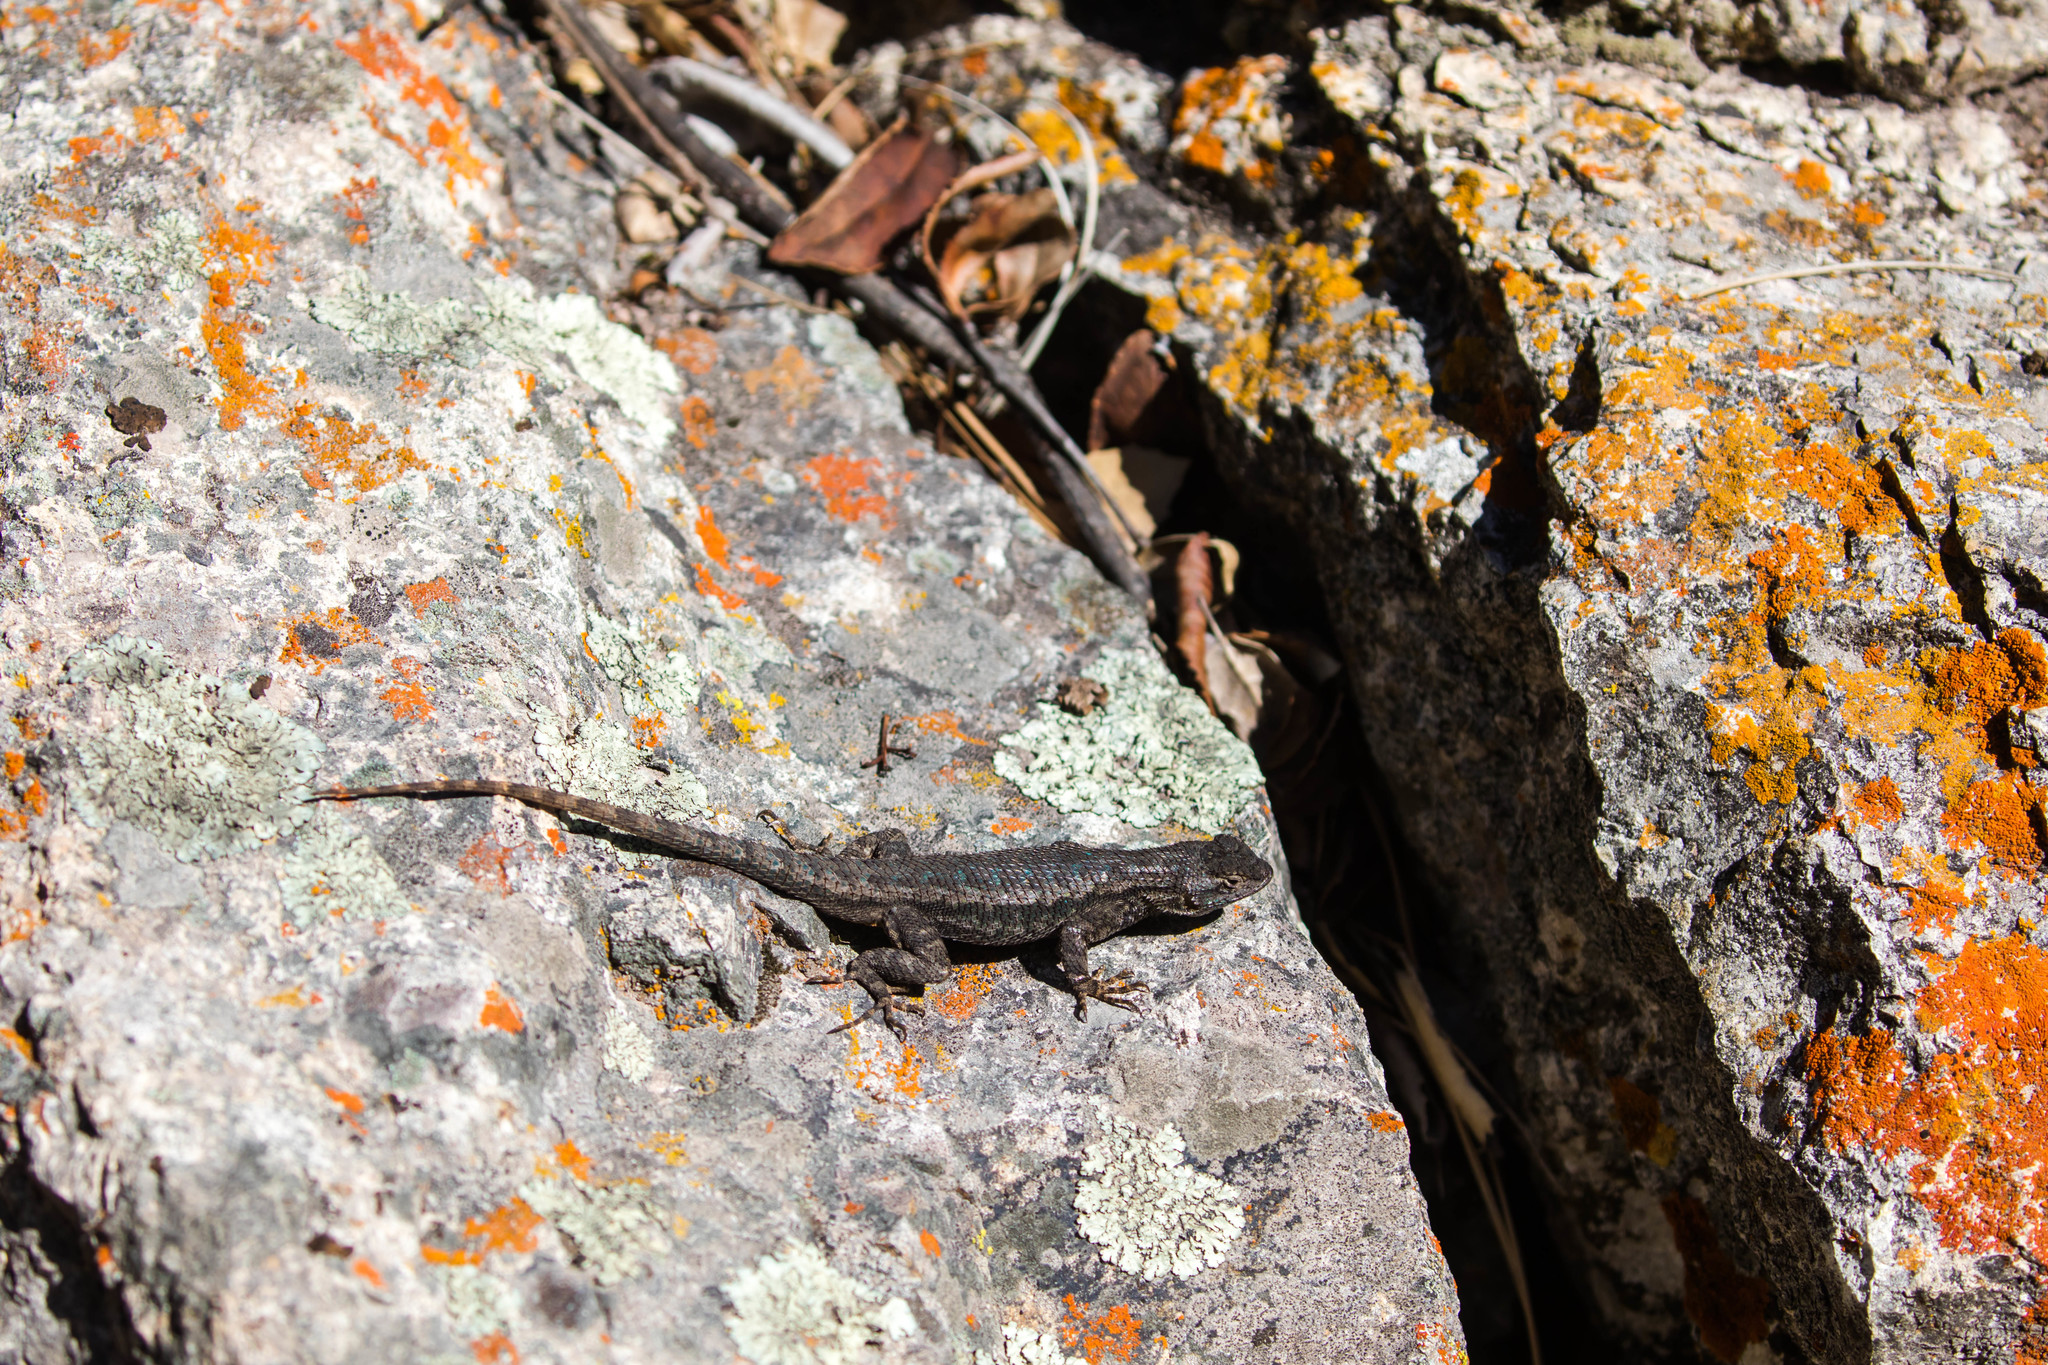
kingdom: Animalia
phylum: Chordata
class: Squamata
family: Phrynosomatidae
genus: Sceloporus
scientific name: Sceloporus occidentalis
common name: Western fence lizard
